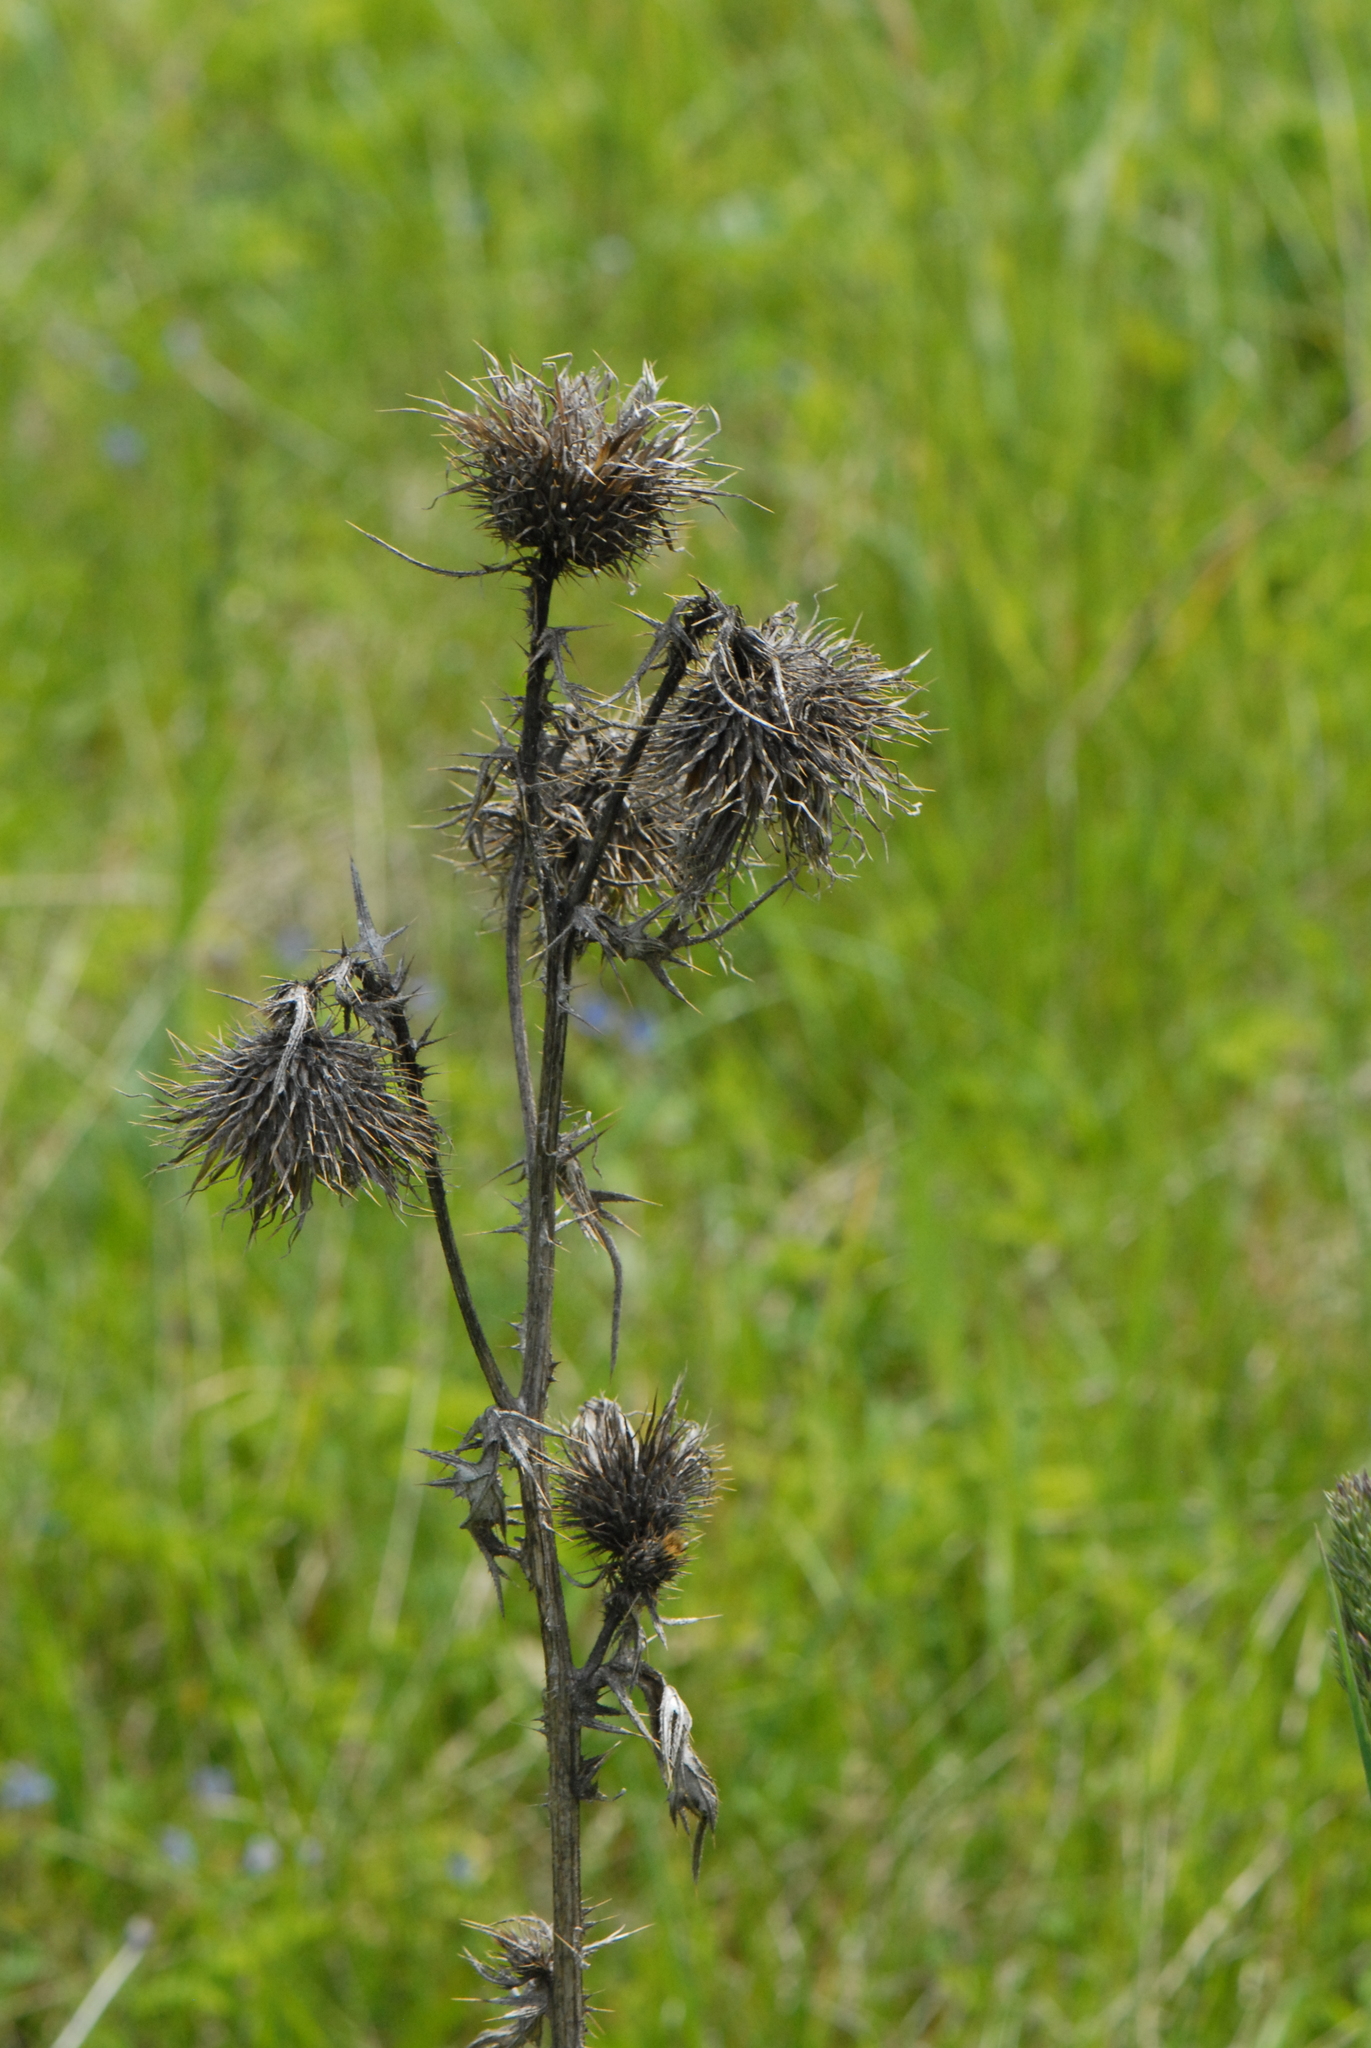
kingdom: Plantae
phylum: Tracheophyta
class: Magnoliopsida
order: Asterales
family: Asteraceae
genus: Cirsium
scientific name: Cirsium vulgare
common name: Bull thistle
